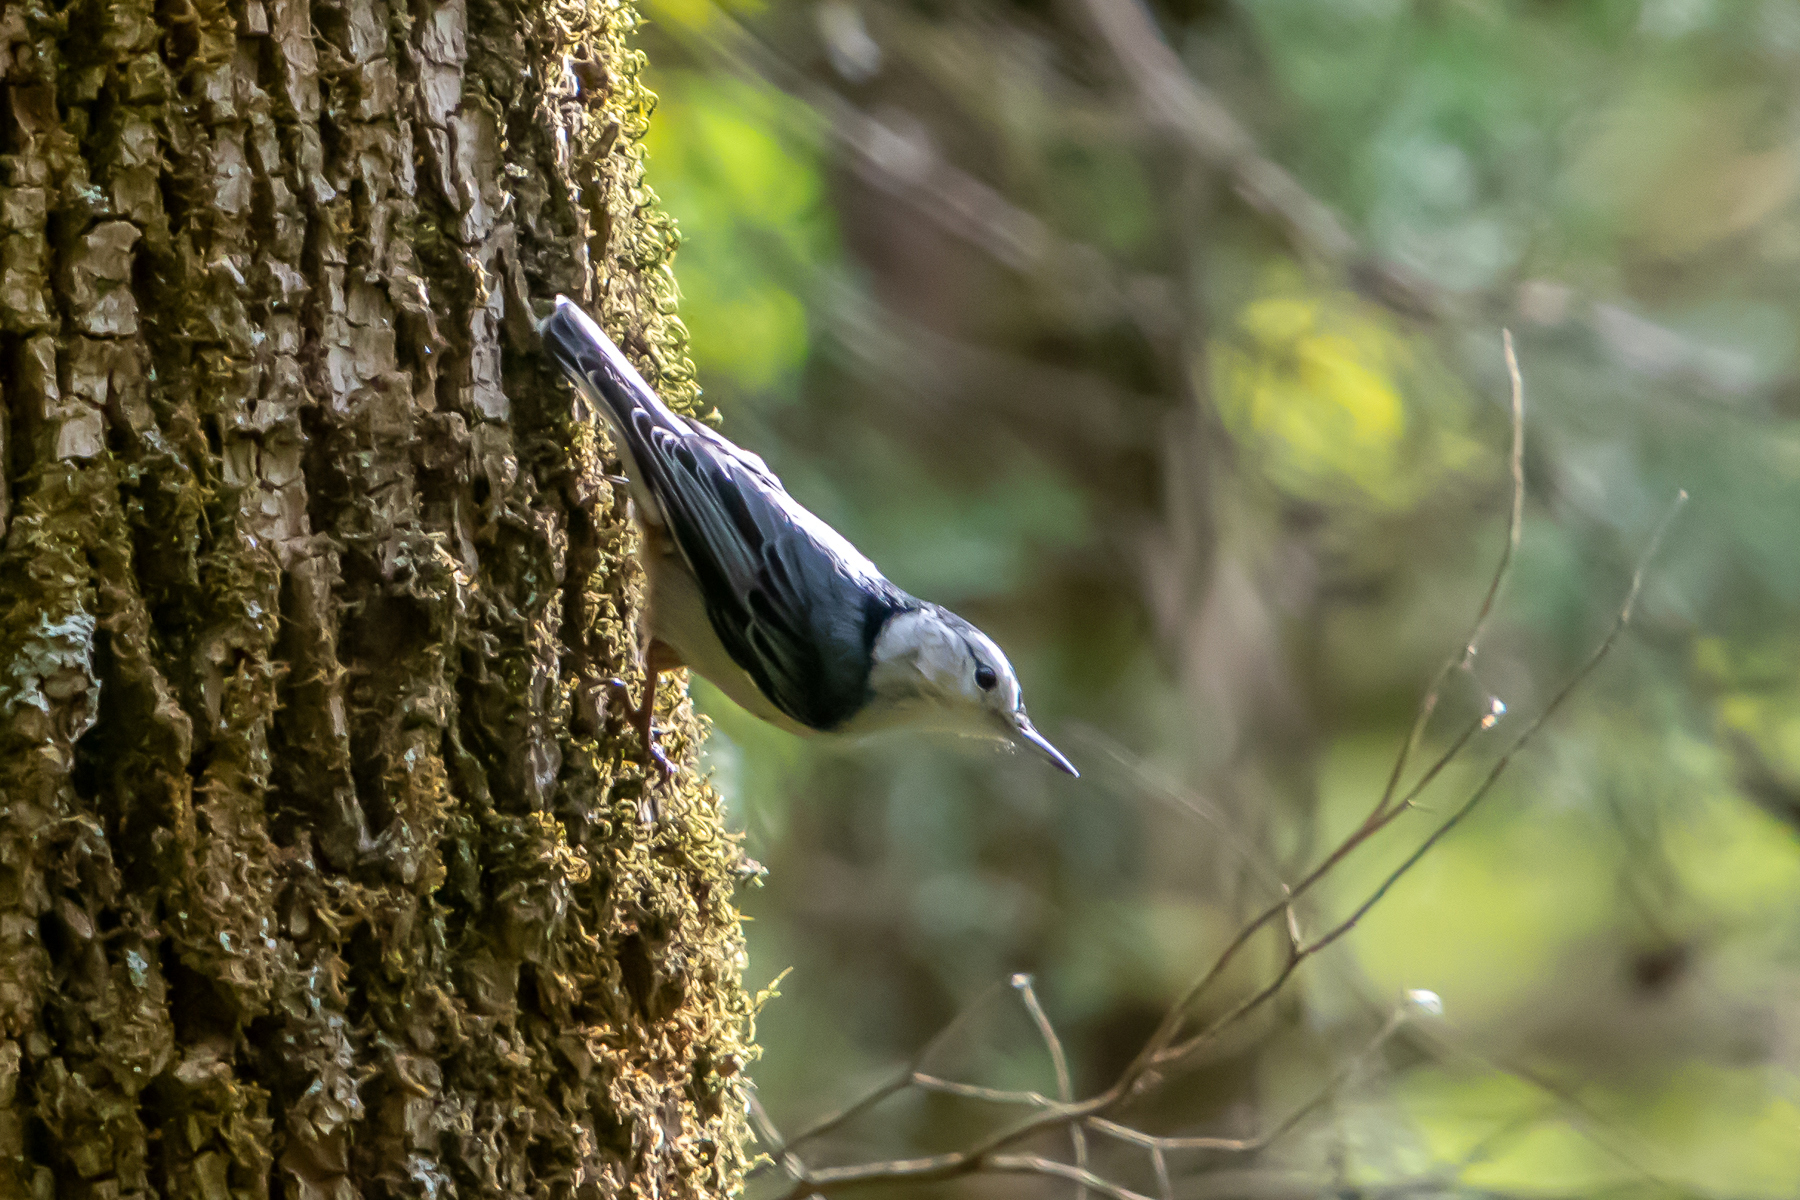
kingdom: Animalia
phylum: Chordata
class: Aves
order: Passeriformes
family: Sittidae
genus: Sitta
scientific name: Sitta carolinensis
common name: White-breasted nuthatch
